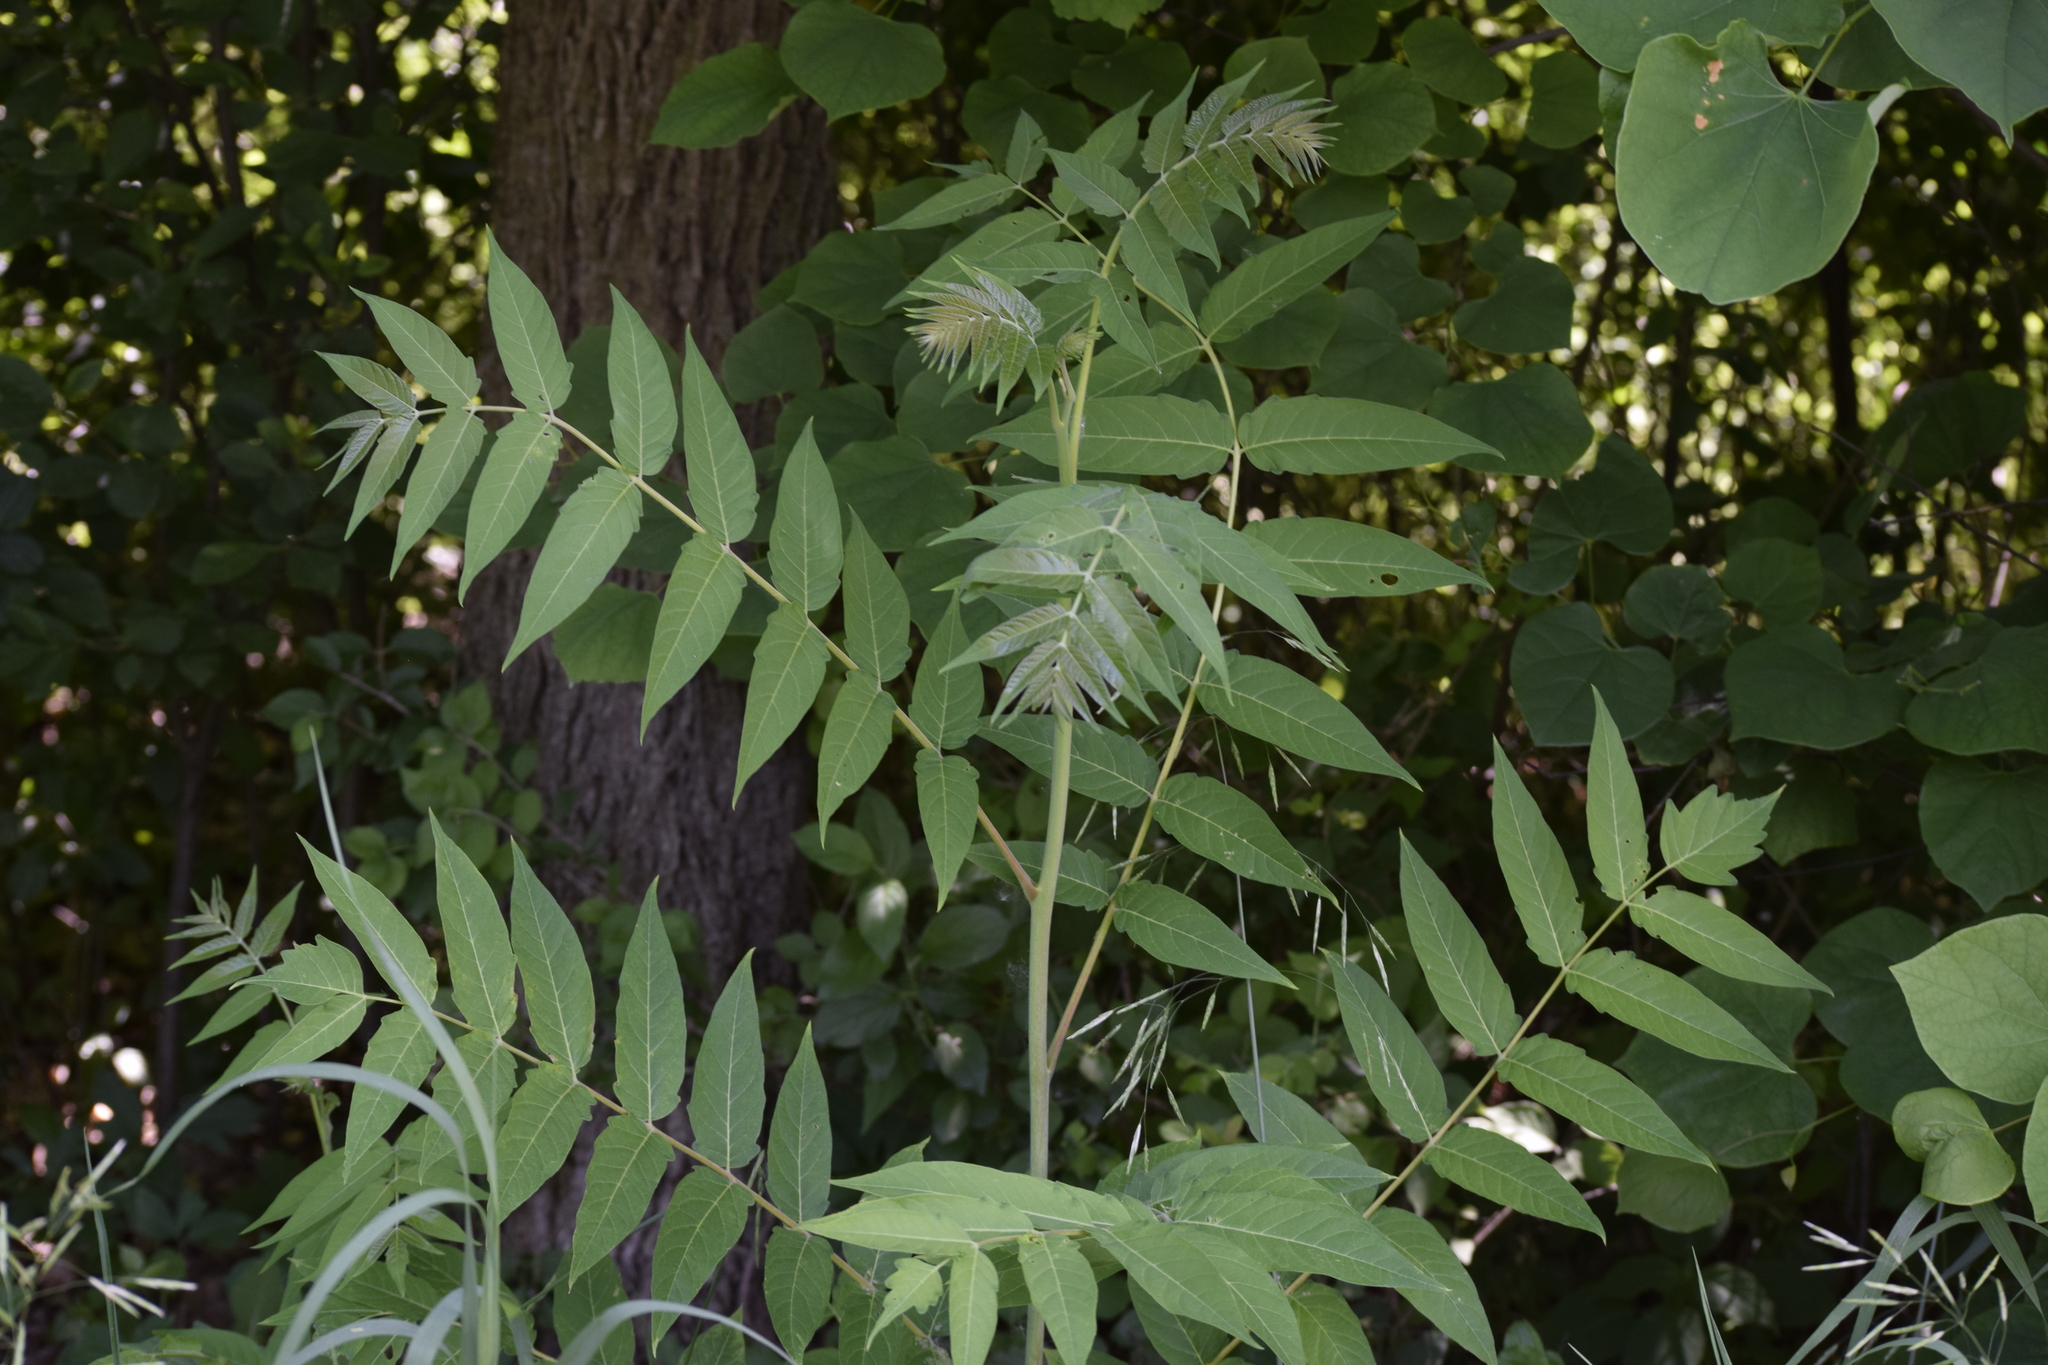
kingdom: Plantae
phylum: Tracheophyta
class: Magnoliopsida
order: Sapindales
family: Simaroubaceae
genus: Ailanthus
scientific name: Ailanthus altissima
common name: Tree-of-heaven
